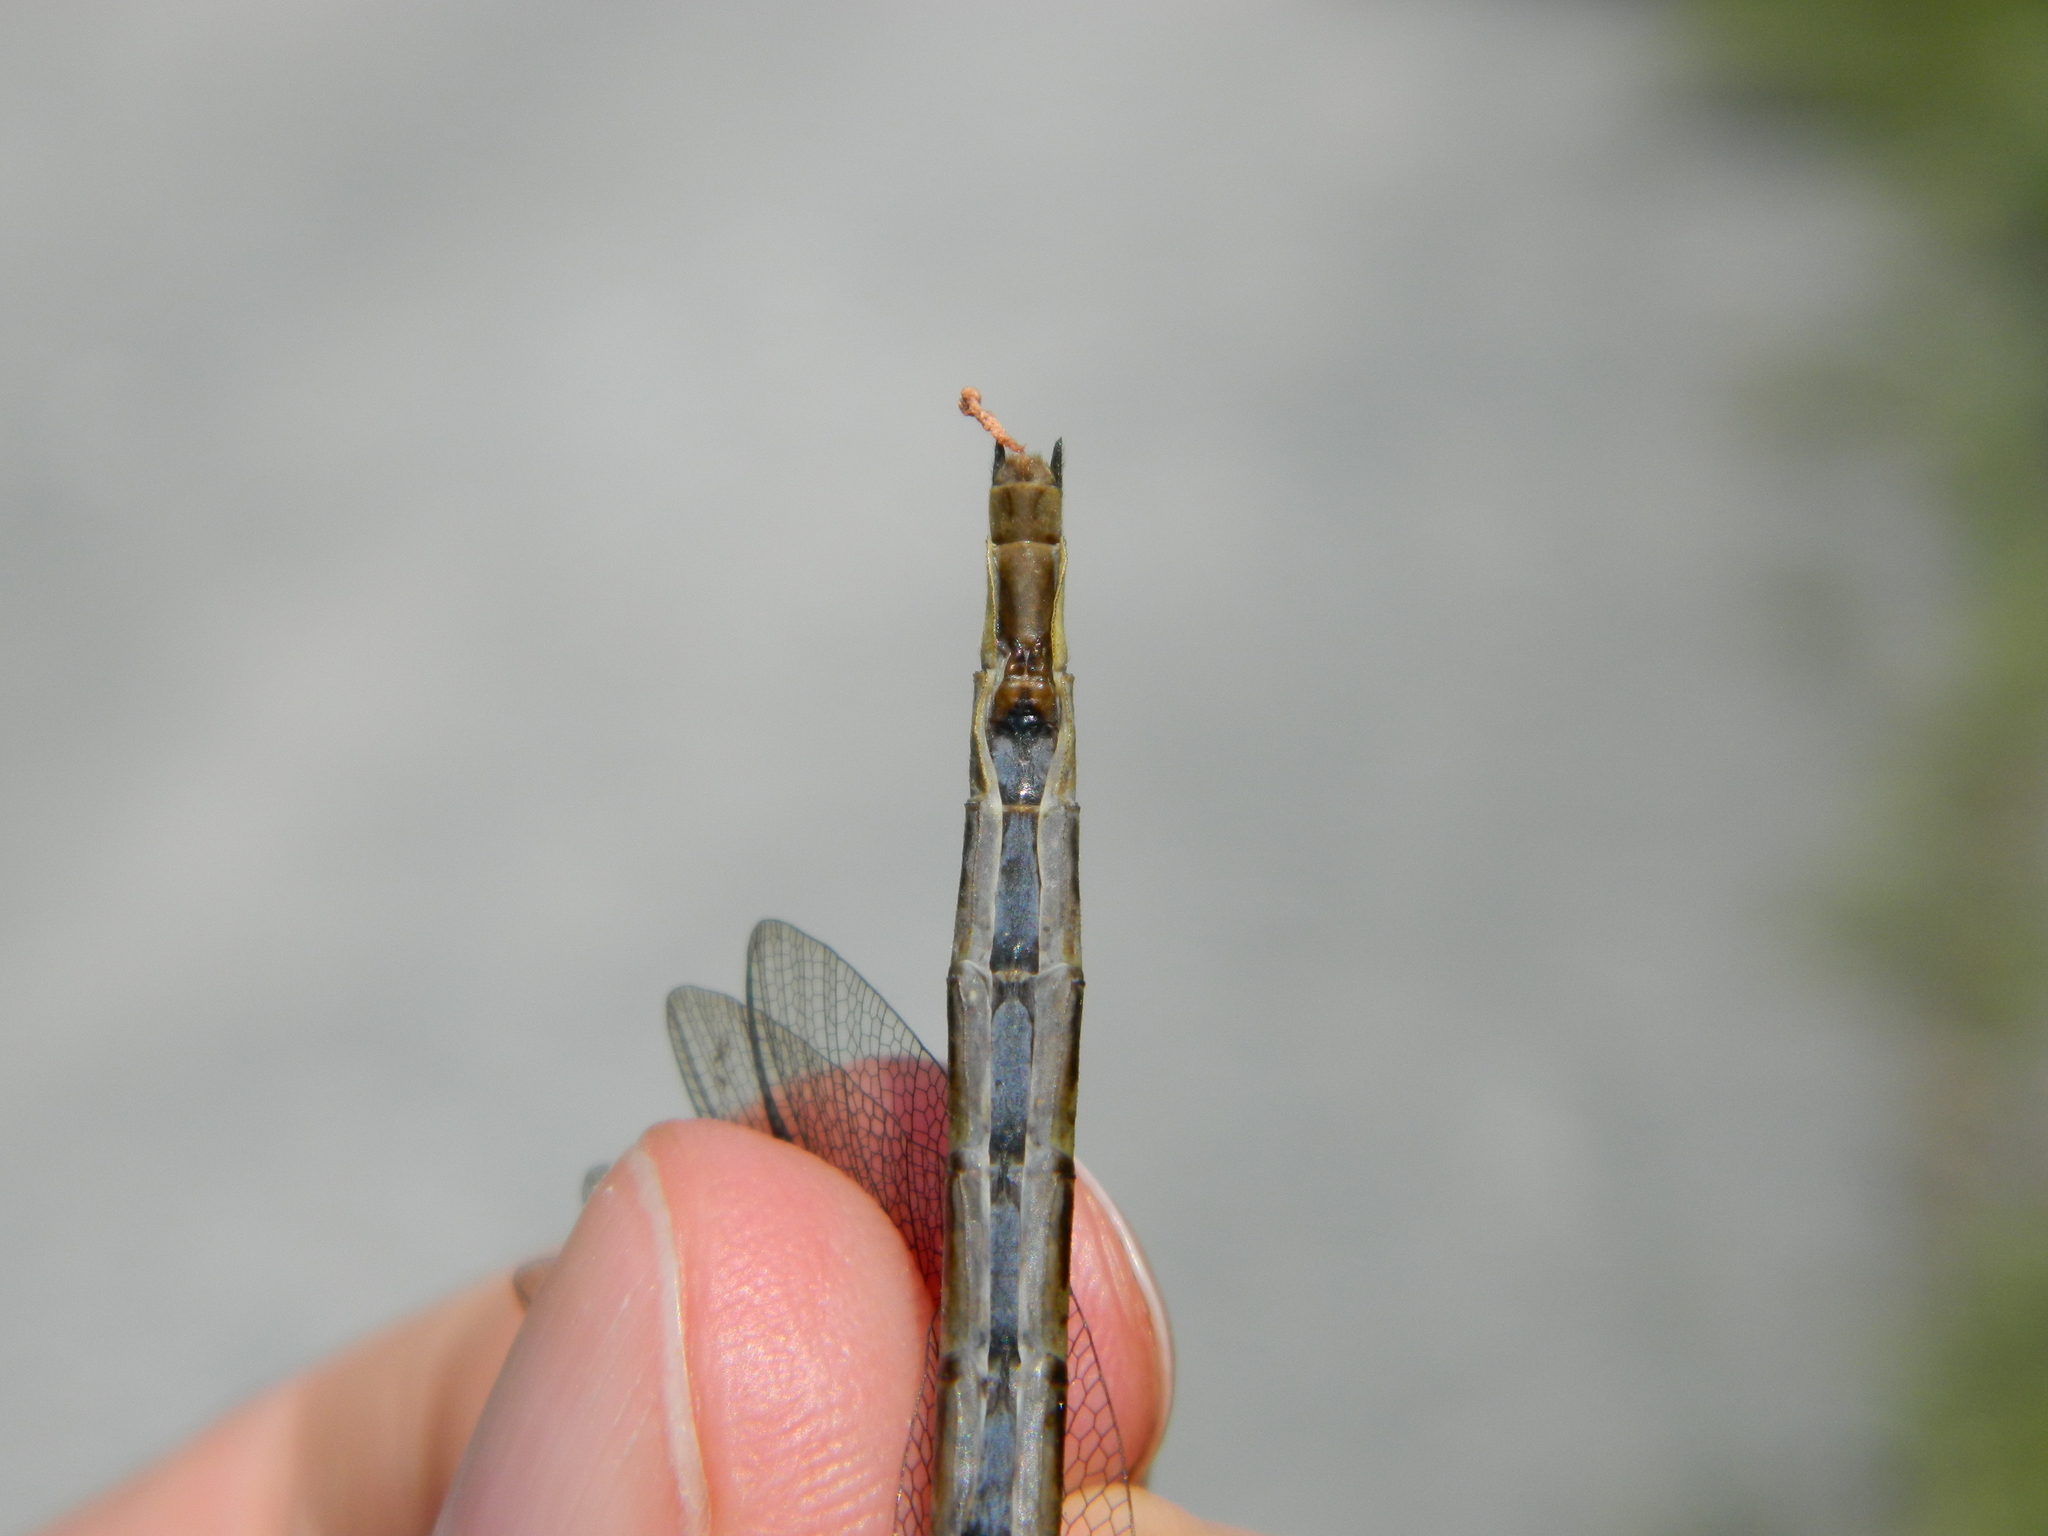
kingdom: Animalia
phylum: Arthropoda
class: Insecta
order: Odonata
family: Gomphidae
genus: Phanogomphus
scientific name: Phanogomphus spicatus
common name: Dusky clubtail
